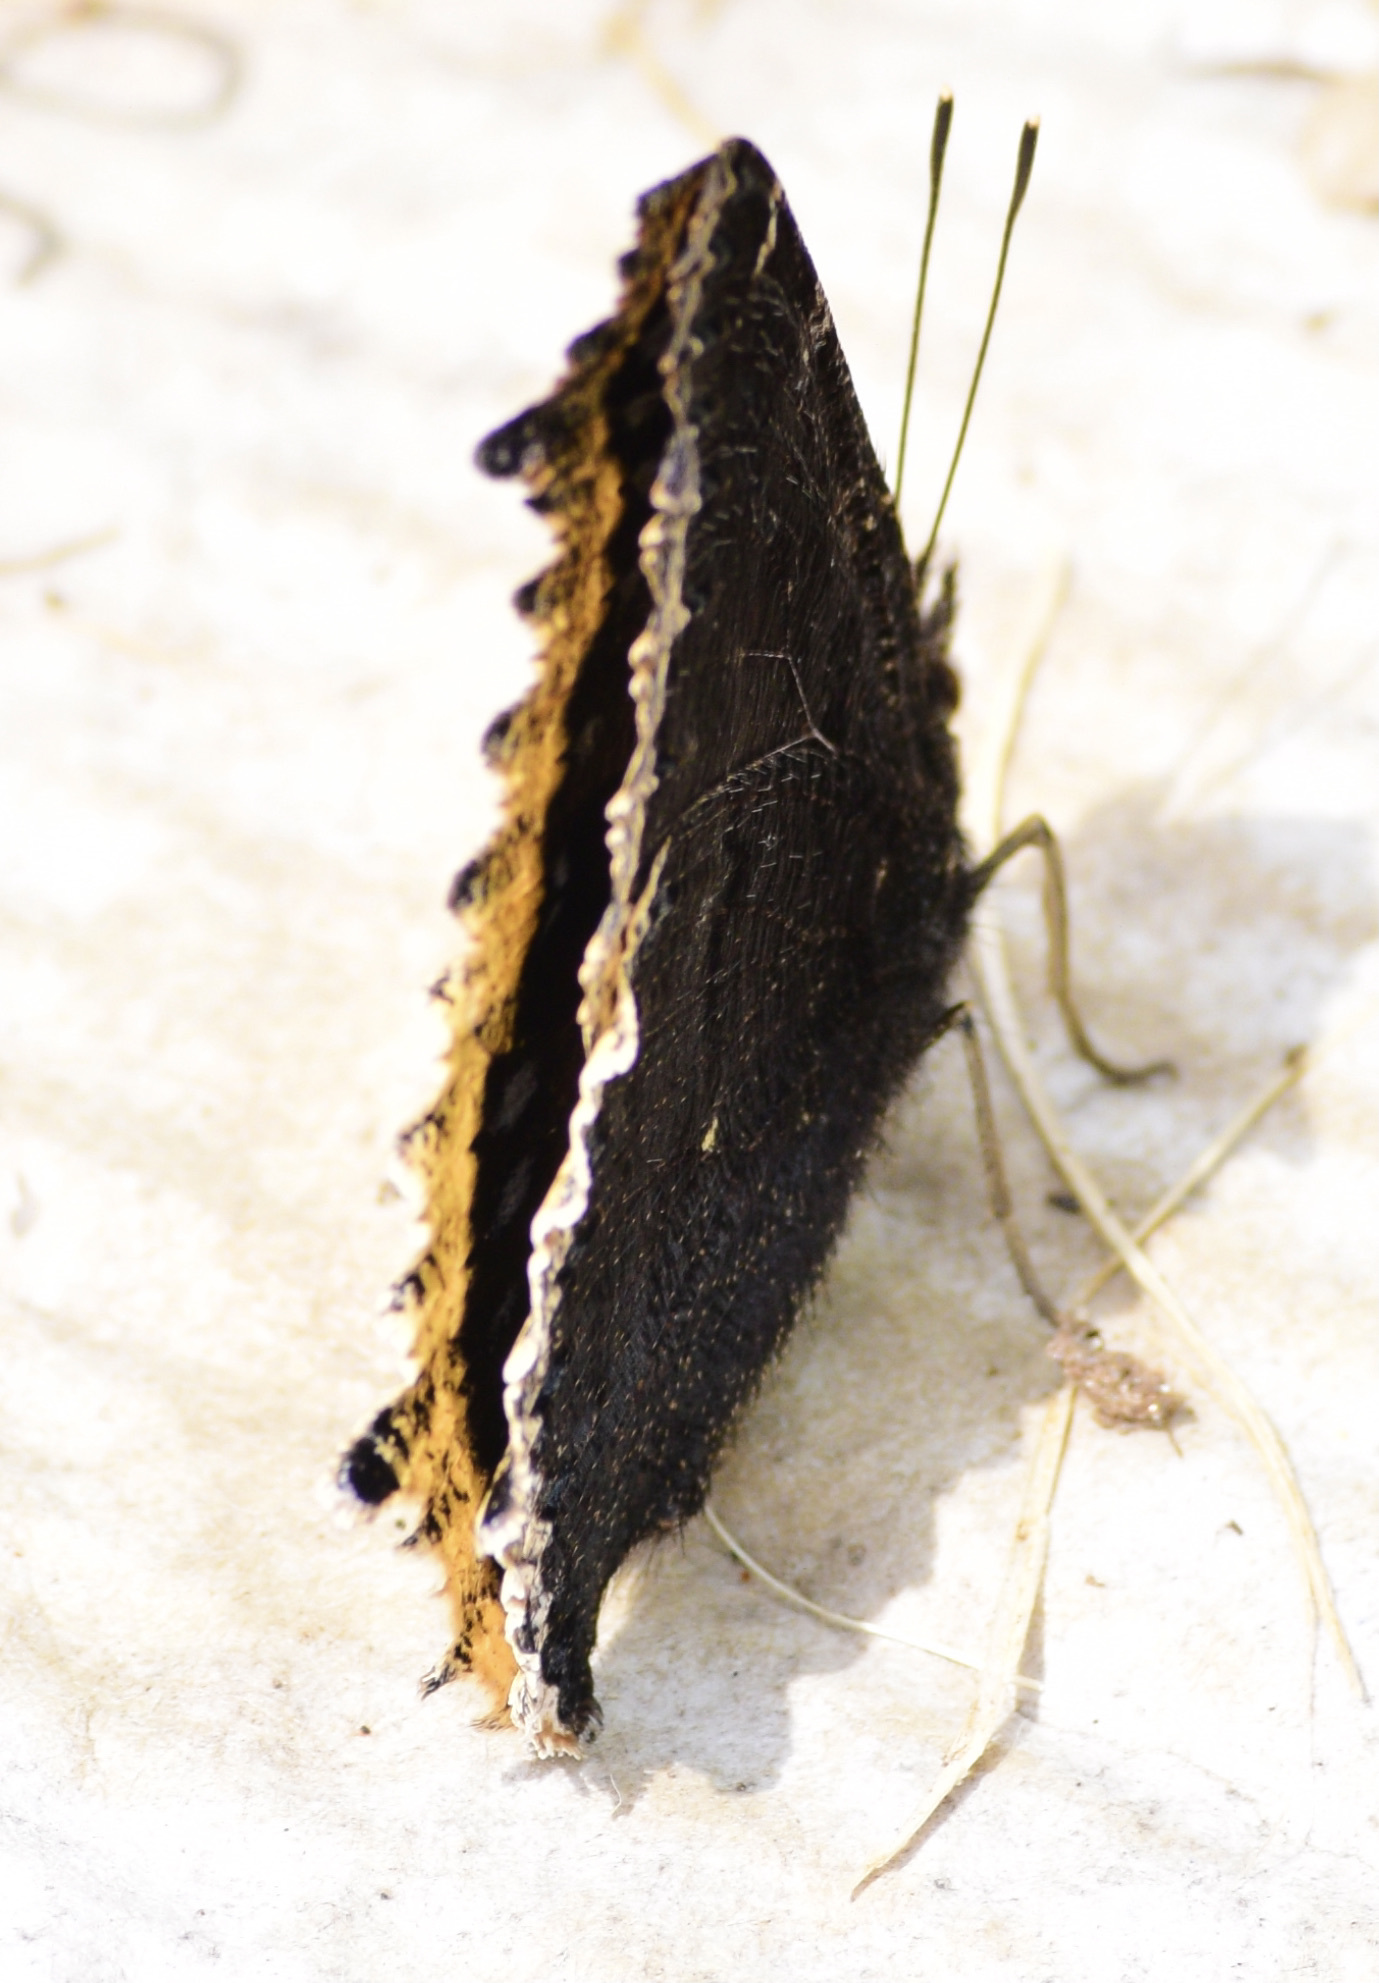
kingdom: Animalia
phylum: Arthropoda
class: Insecta
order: Lepidoptera
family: Nymphalidae
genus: Nymphalis
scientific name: Nymphalis antiopa
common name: Camberwell beauty
